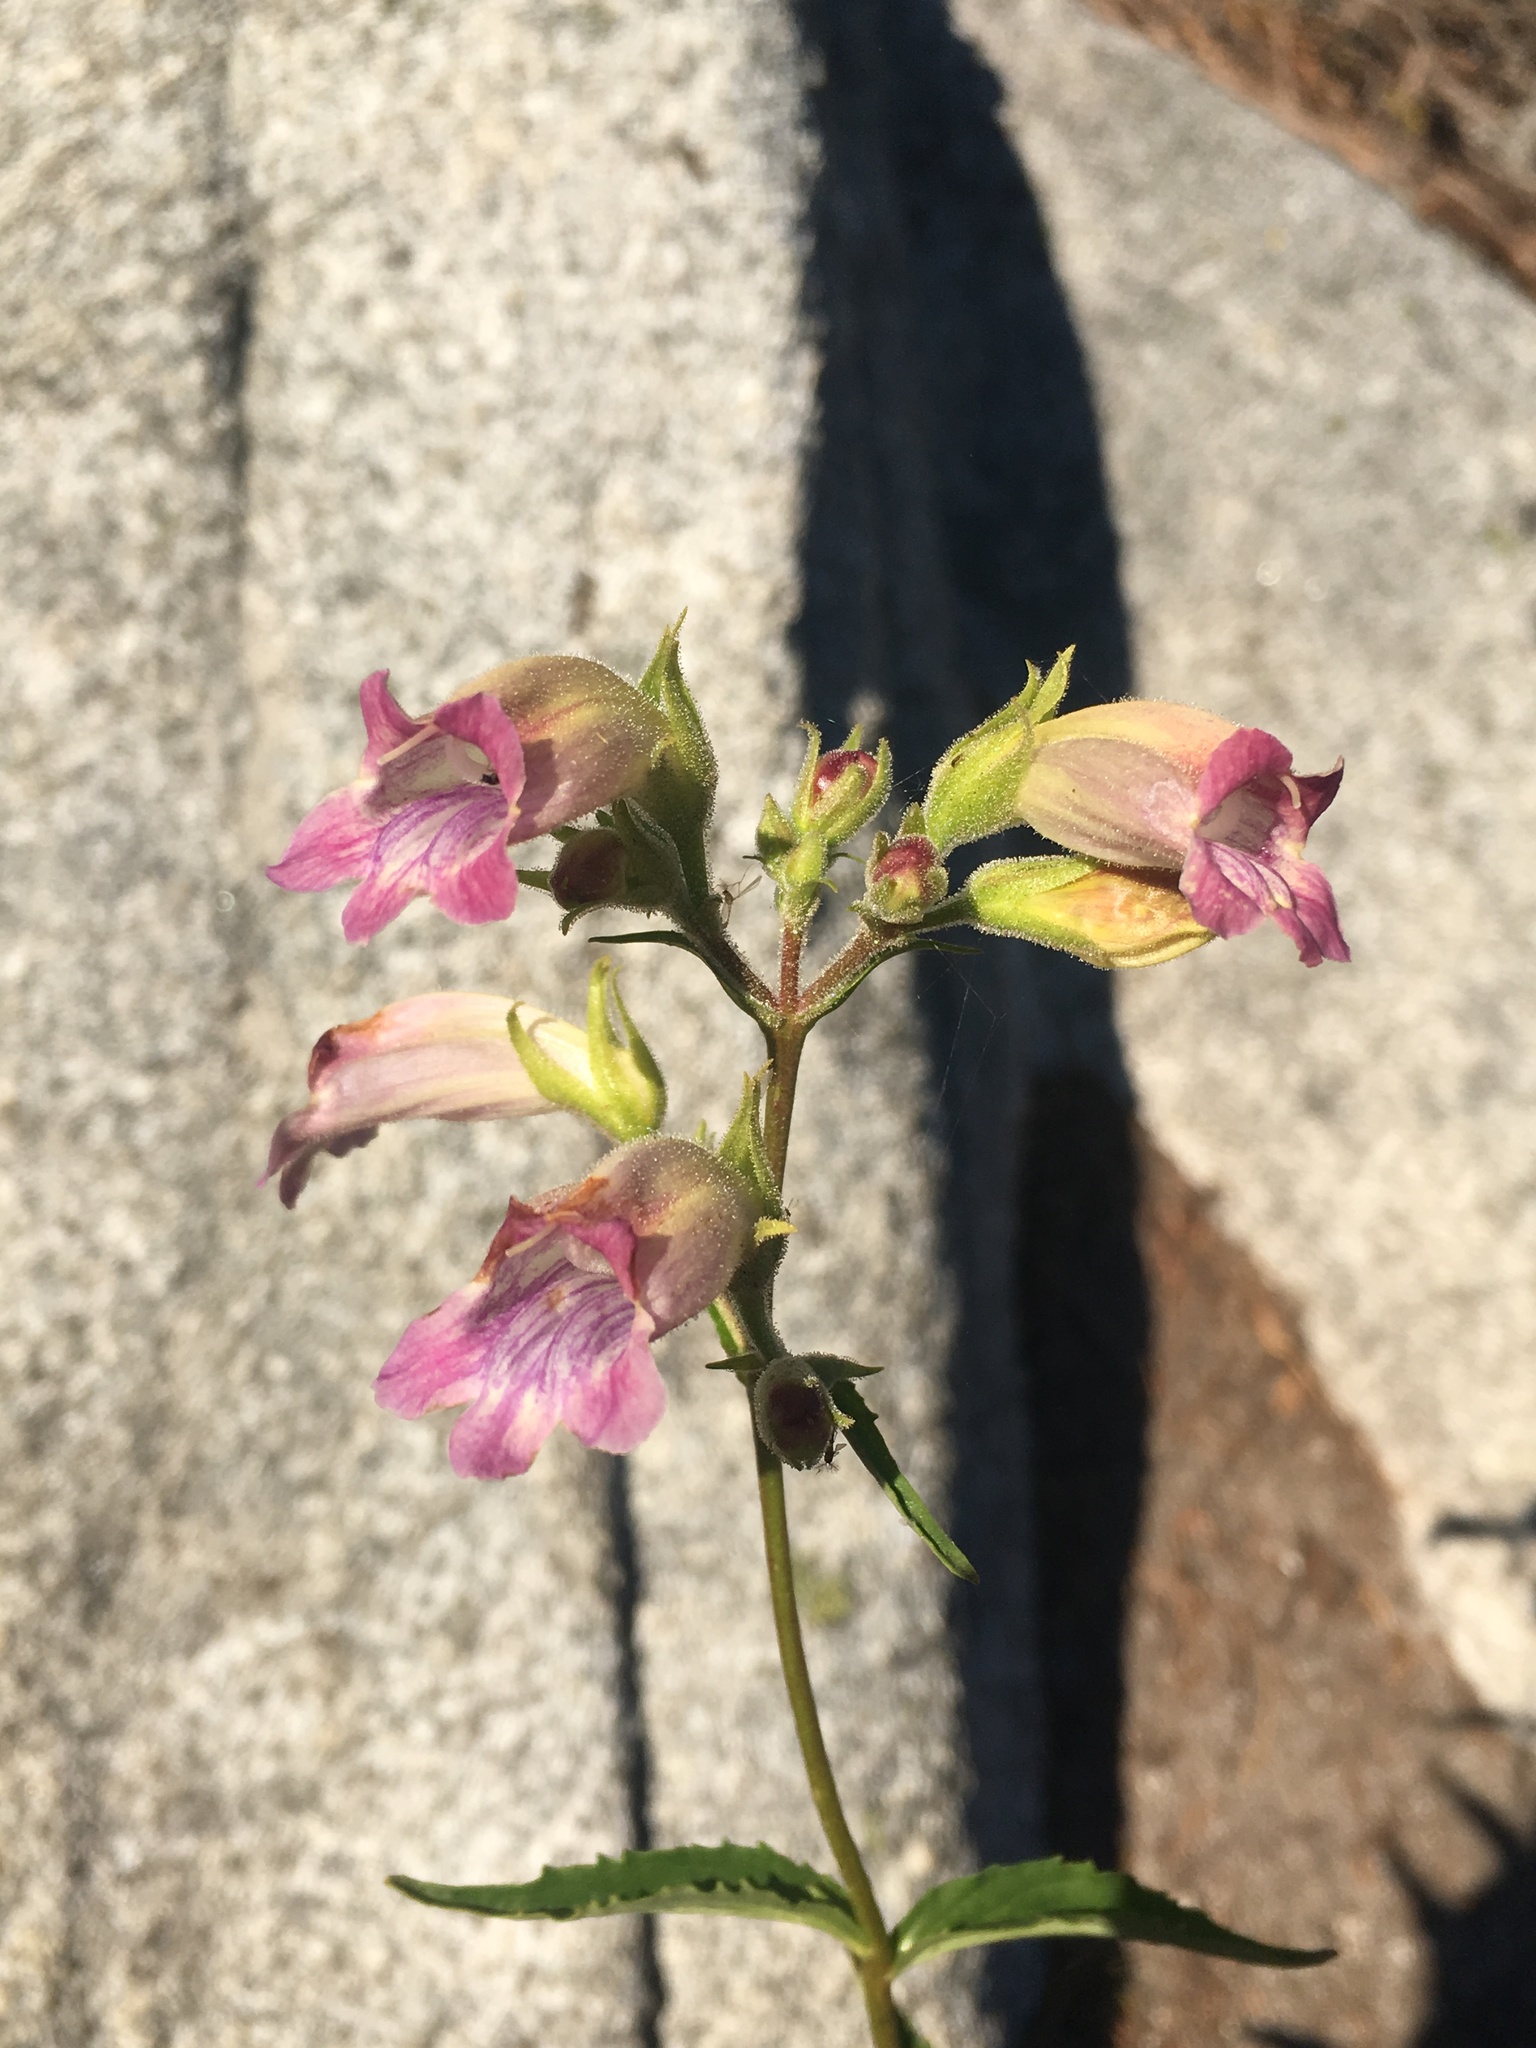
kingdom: Plantae
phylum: Tracheophyta
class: Magnoliopsida
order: Lamiales
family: Plantaginaceae
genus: Nothochelone
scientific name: Nothochelone nemorosa
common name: Woodland beardtongue
